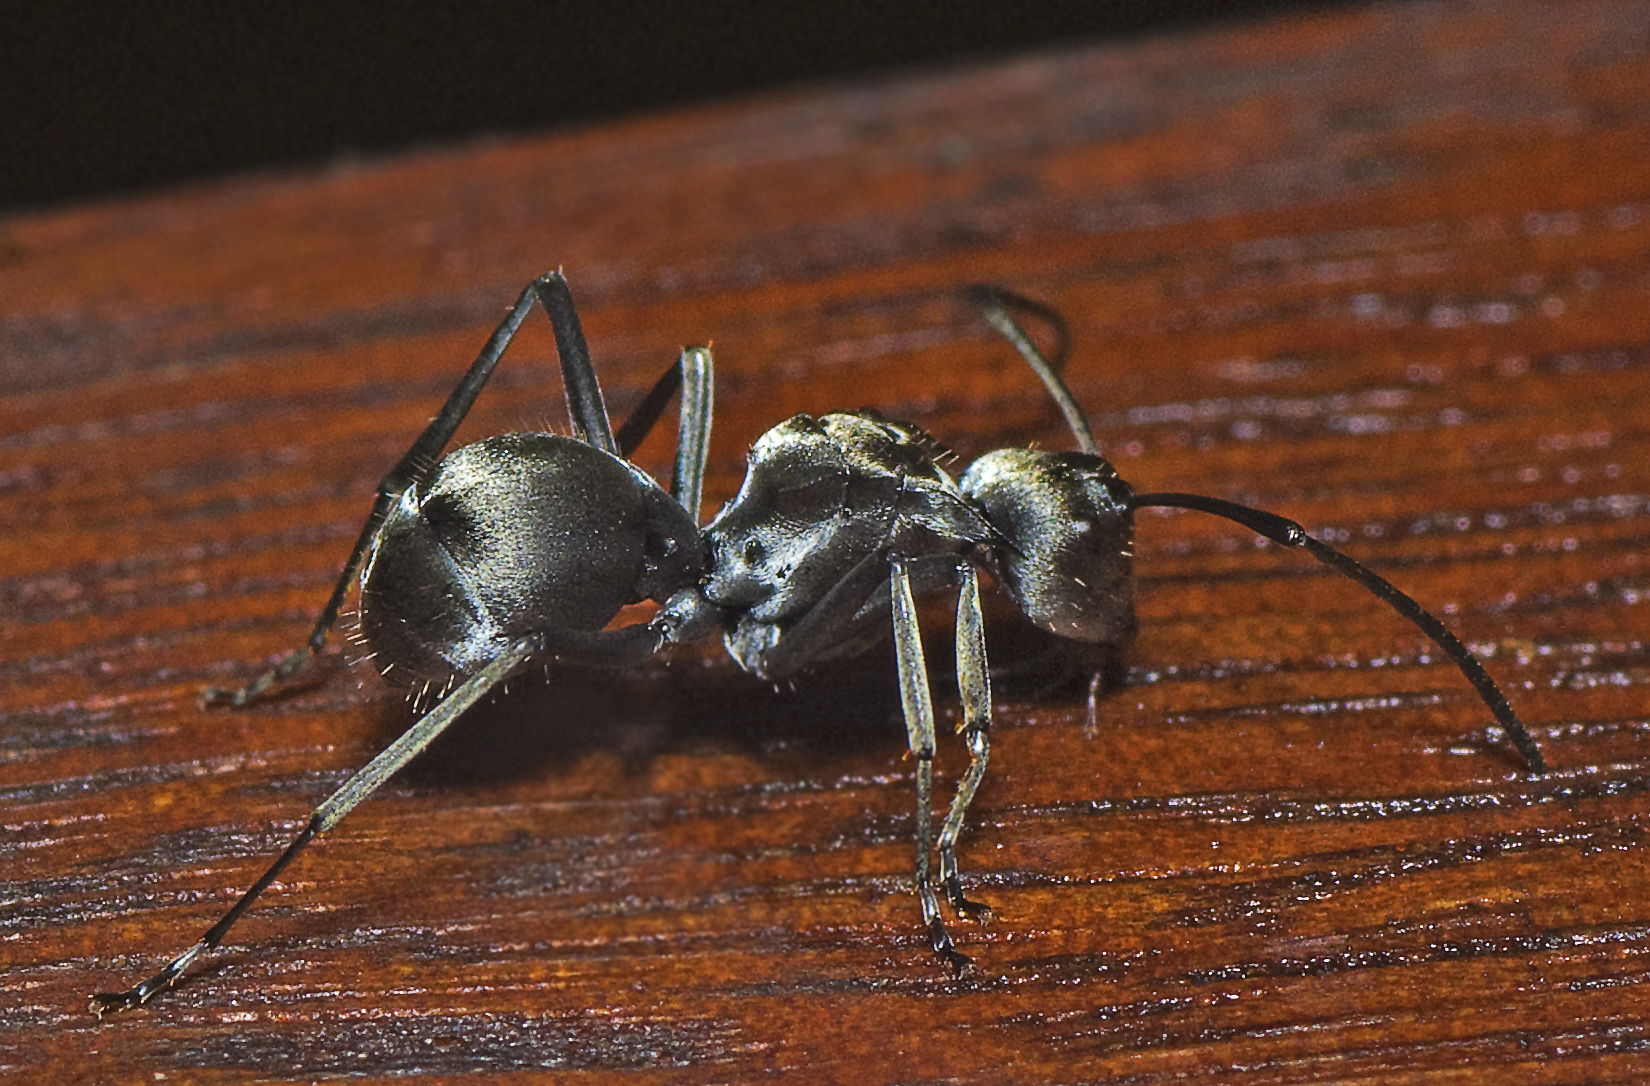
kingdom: Animalia
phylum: Arthropoda
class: Insecta
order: Hymenoptera
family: Formicidae
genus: Polyrhachis
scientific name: Polyrhachis foreli
